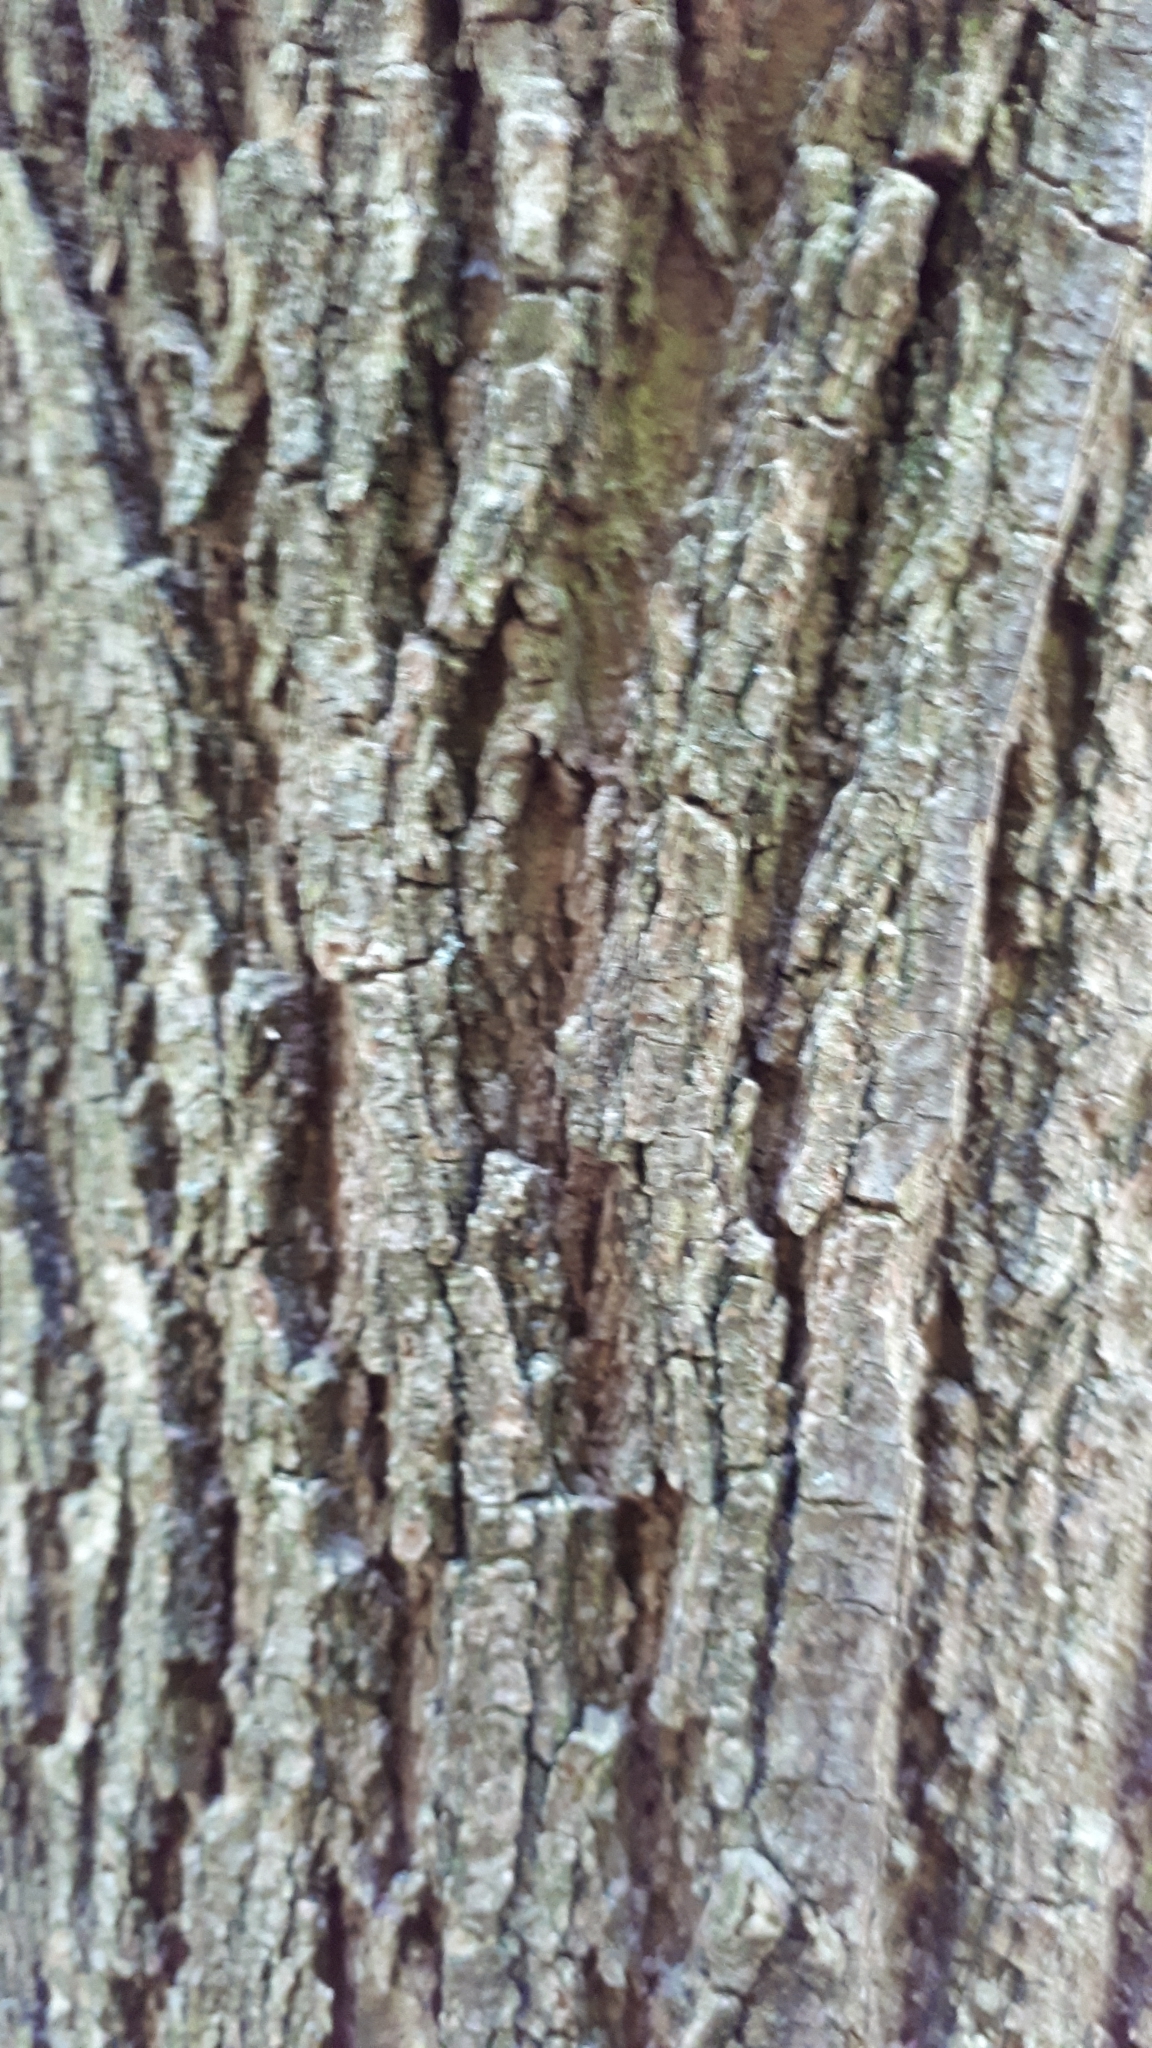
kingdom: Plantae
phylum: Tracheophyta
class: Magnoliopsida
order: Fabales
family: Fabaceae
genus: Robinia
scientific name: Robinia pseudoacacia
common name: Black locust
